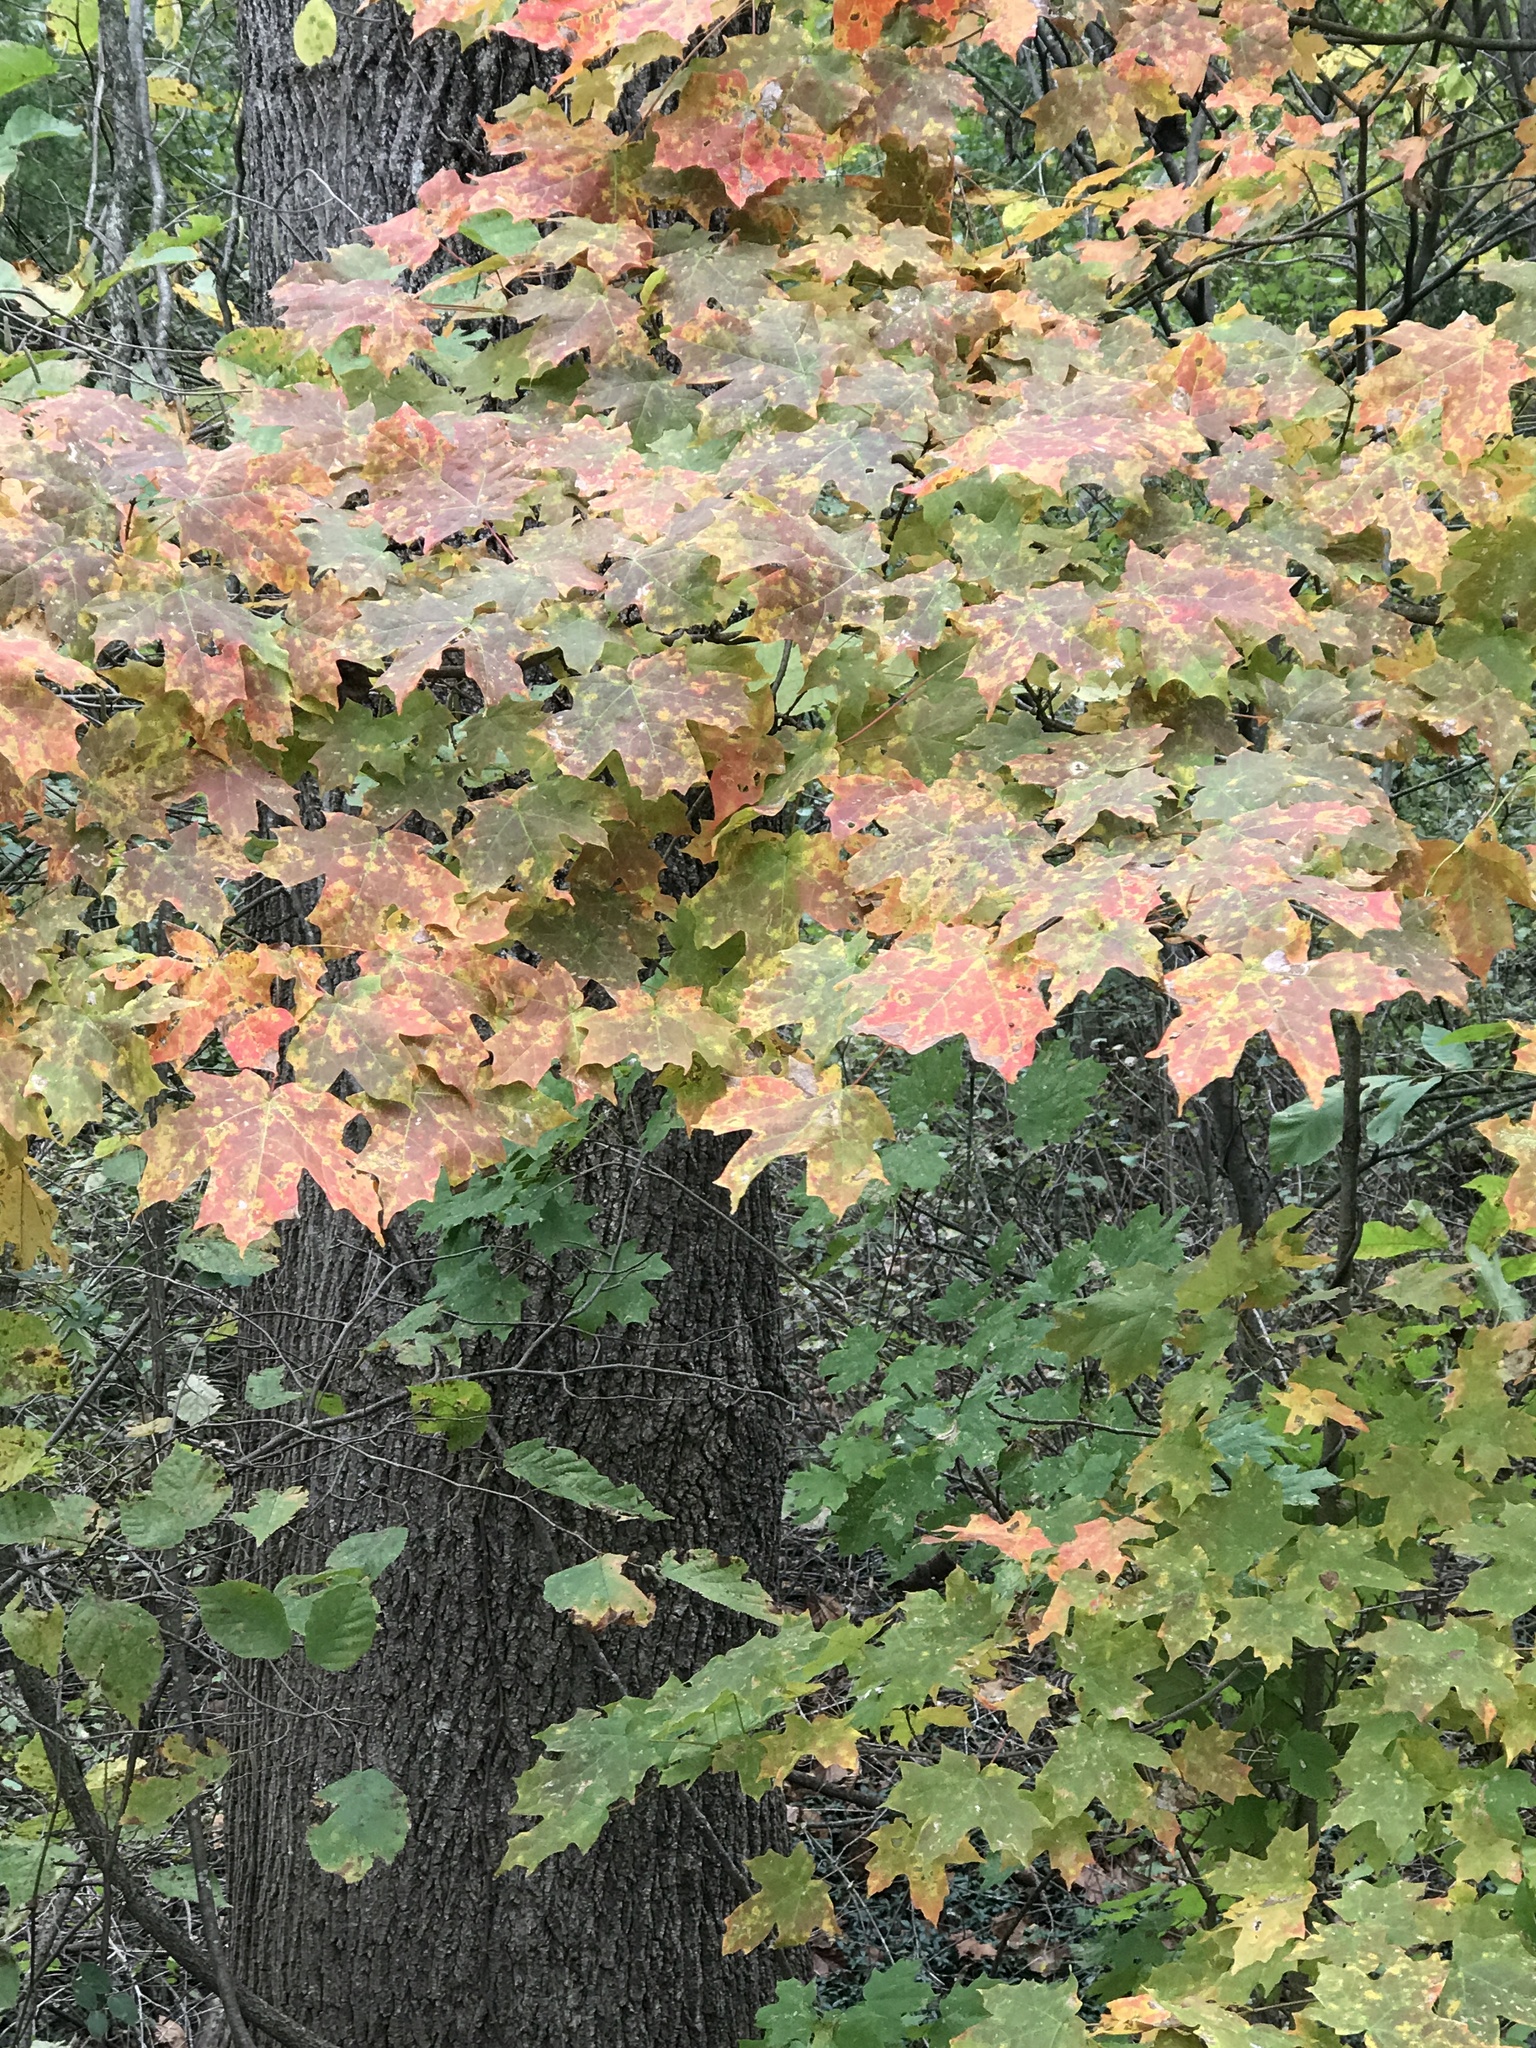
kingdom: Plantae
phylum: Tracheophyta
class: Magnoliopsida
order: Sapindales
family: Sapindaceae
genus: Acer
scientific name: Acer saccharum
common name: Sugar maple
